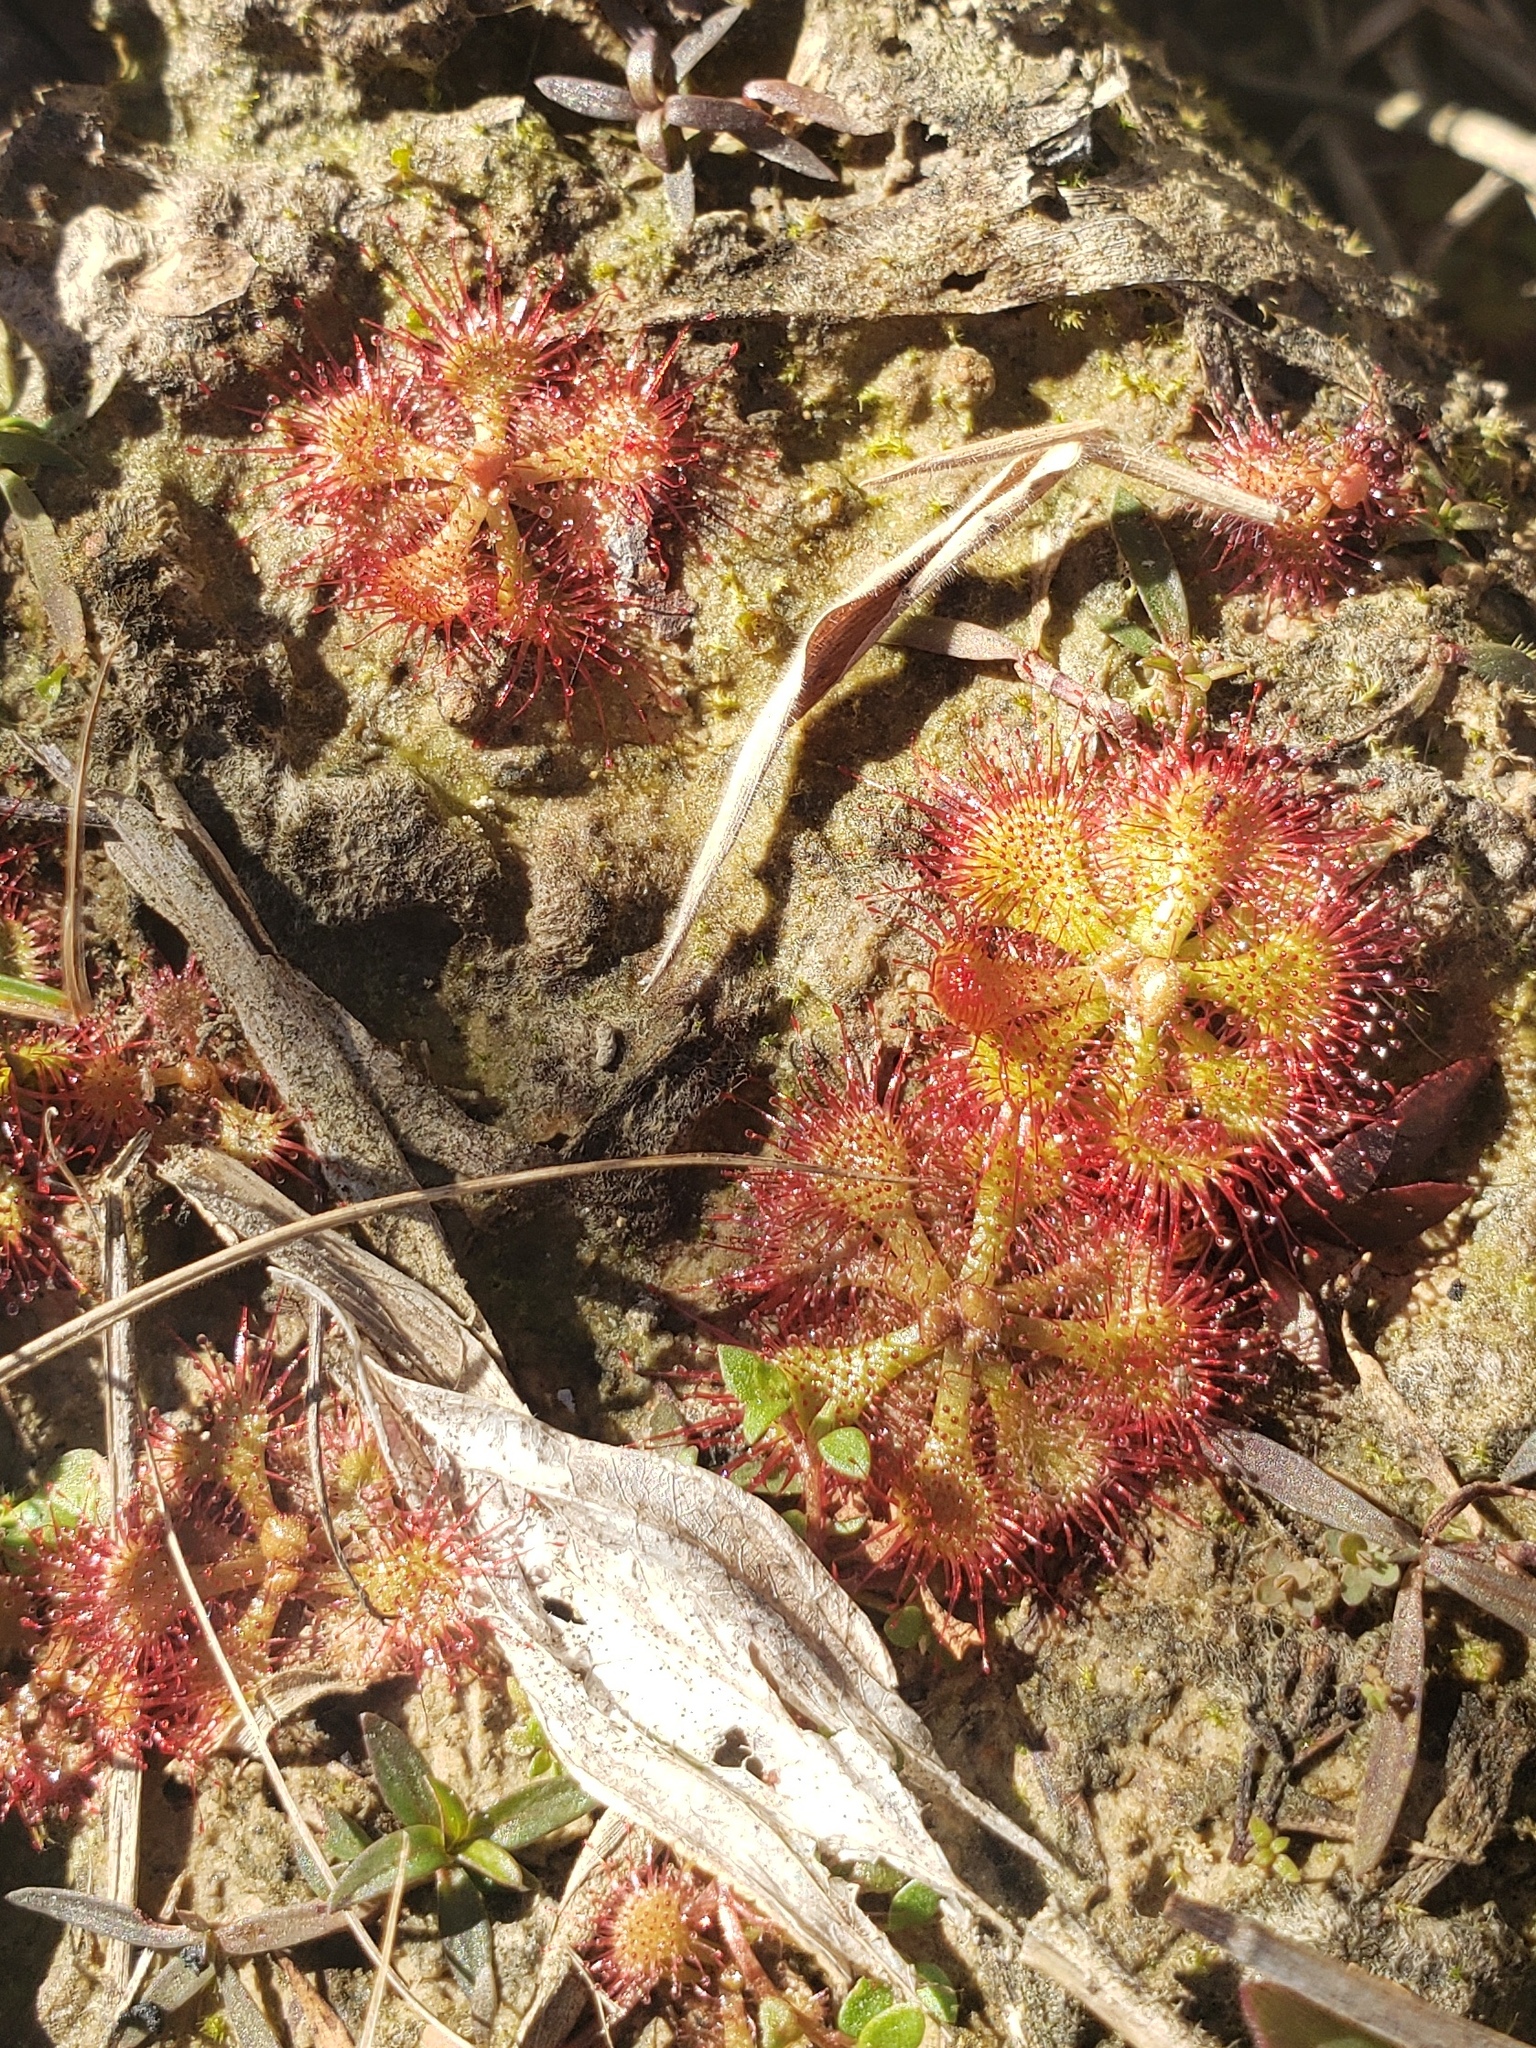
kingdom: Plantae
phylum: Tracheophyta
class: Magnoliopsida
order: Caryophyllales
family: Droseraceae
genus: Drosera
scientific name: Drosera brevifolia
